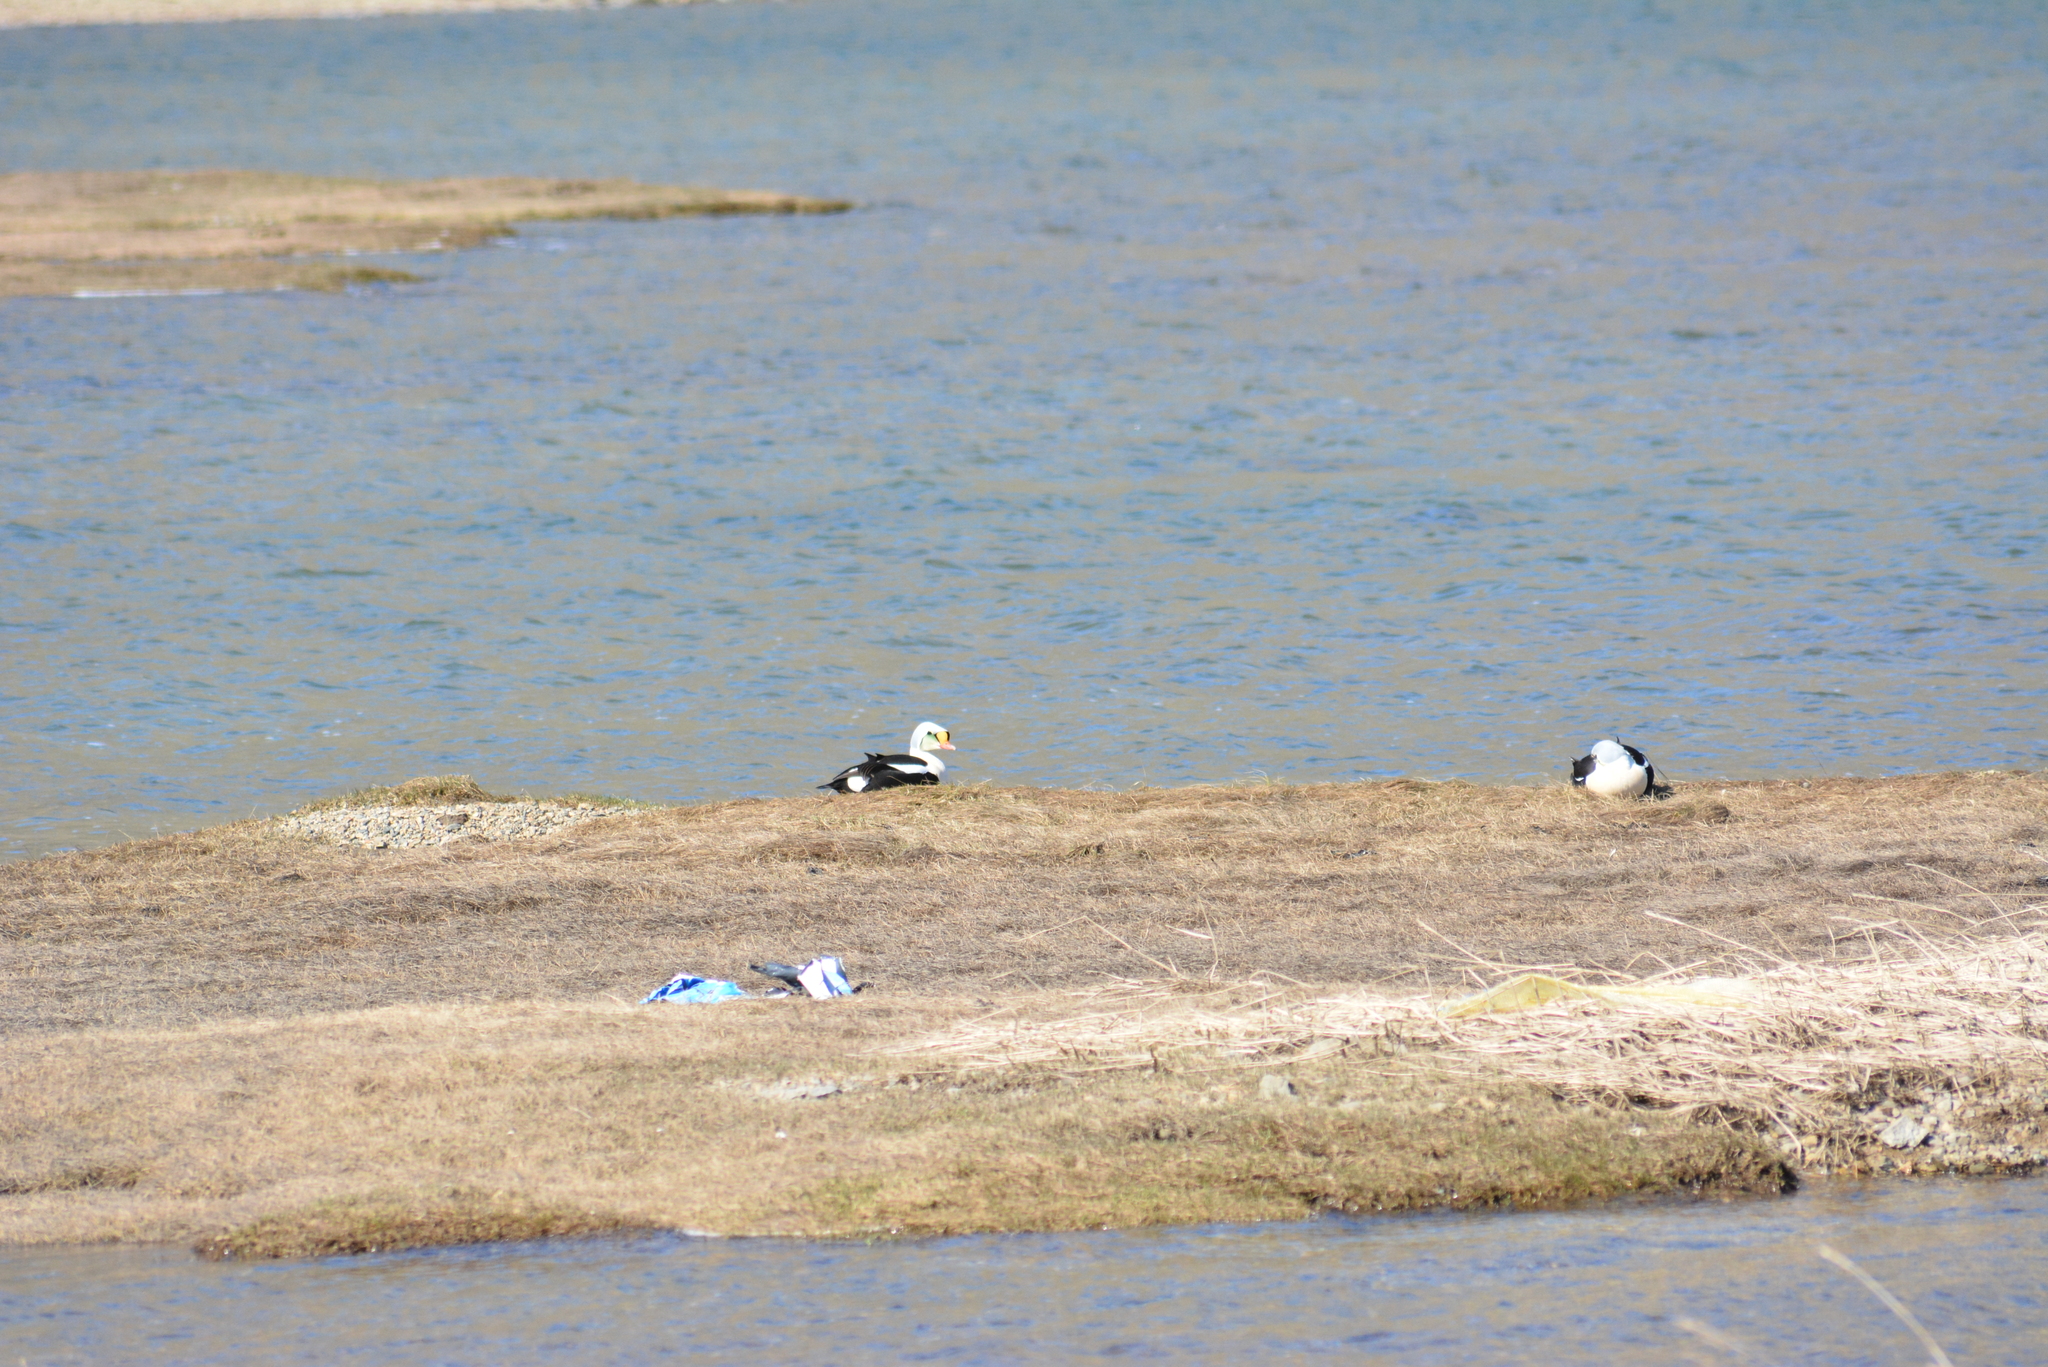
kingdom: Animalia
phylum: Chordata
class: Aves
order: Anseriformes
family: Anatidae
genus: Somateria
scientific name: Somateria spectabilis
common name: King eider
